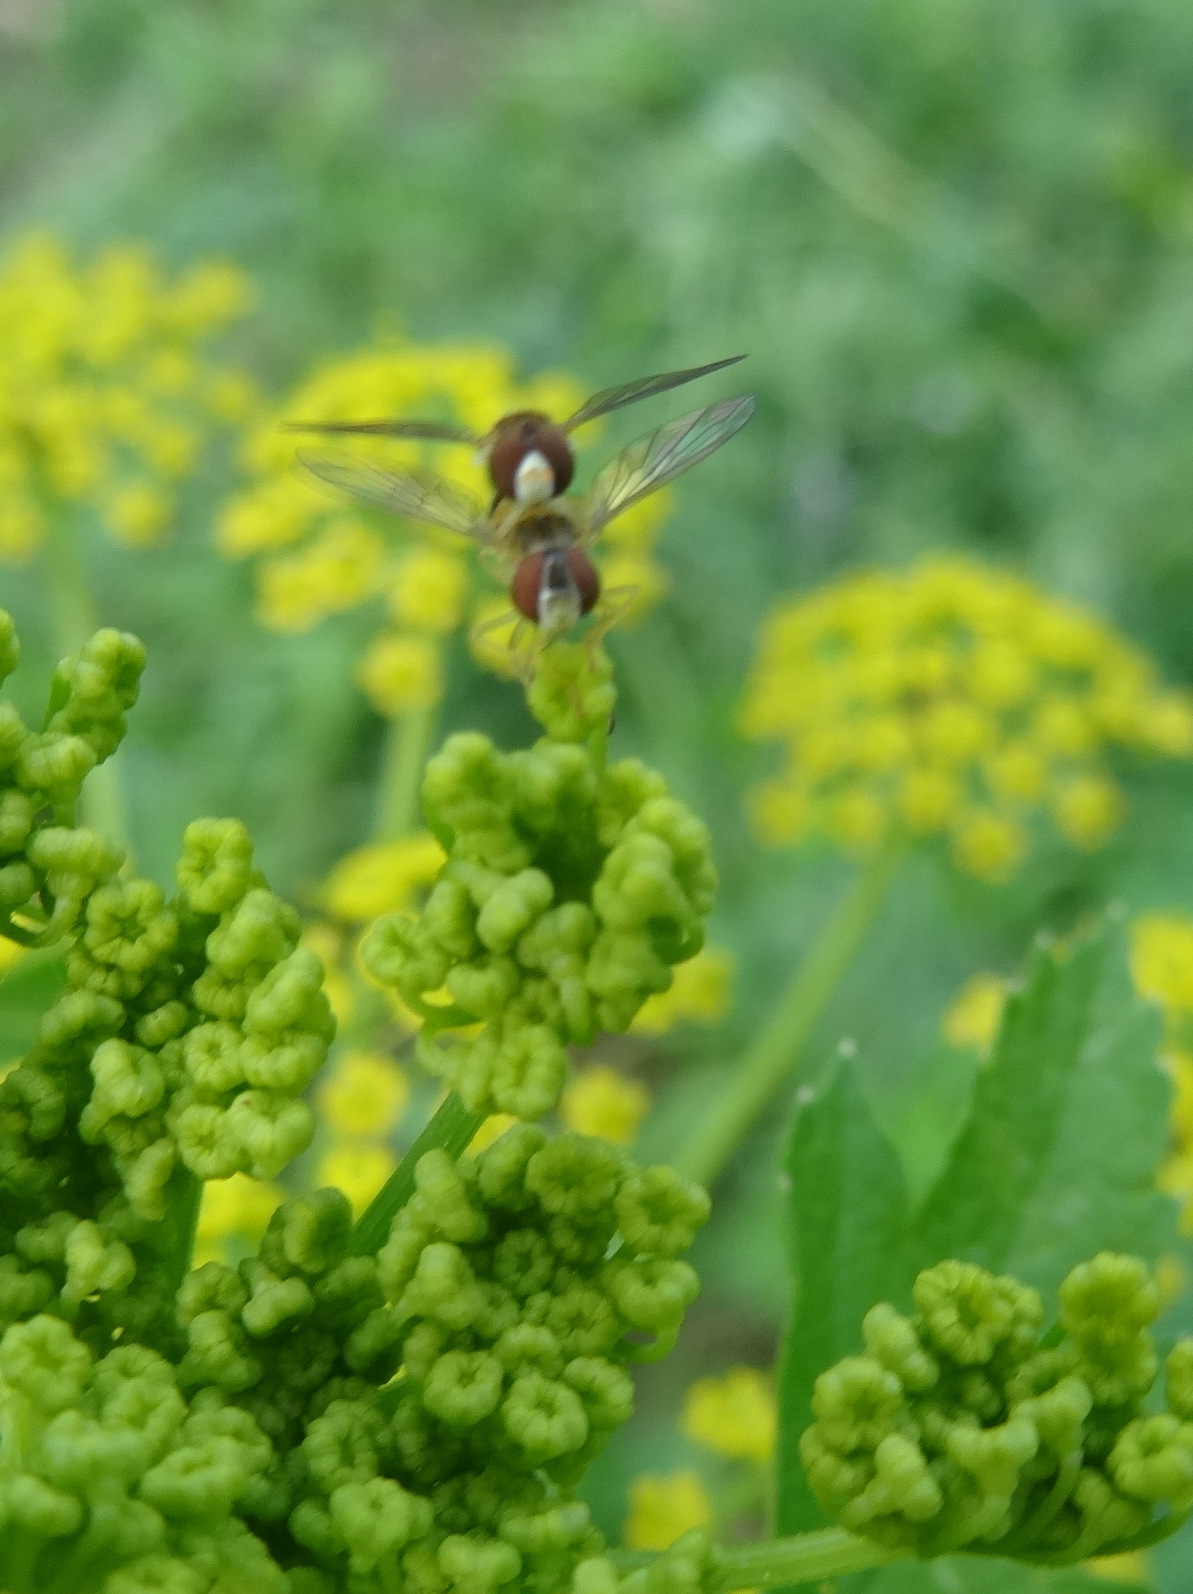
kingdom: Animalia
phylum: Arthropoda
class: Insecta
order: Diptera
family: Syrphidae
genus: Toxomerus
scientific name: Toxomerus marginatus
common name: Syrphid fly
